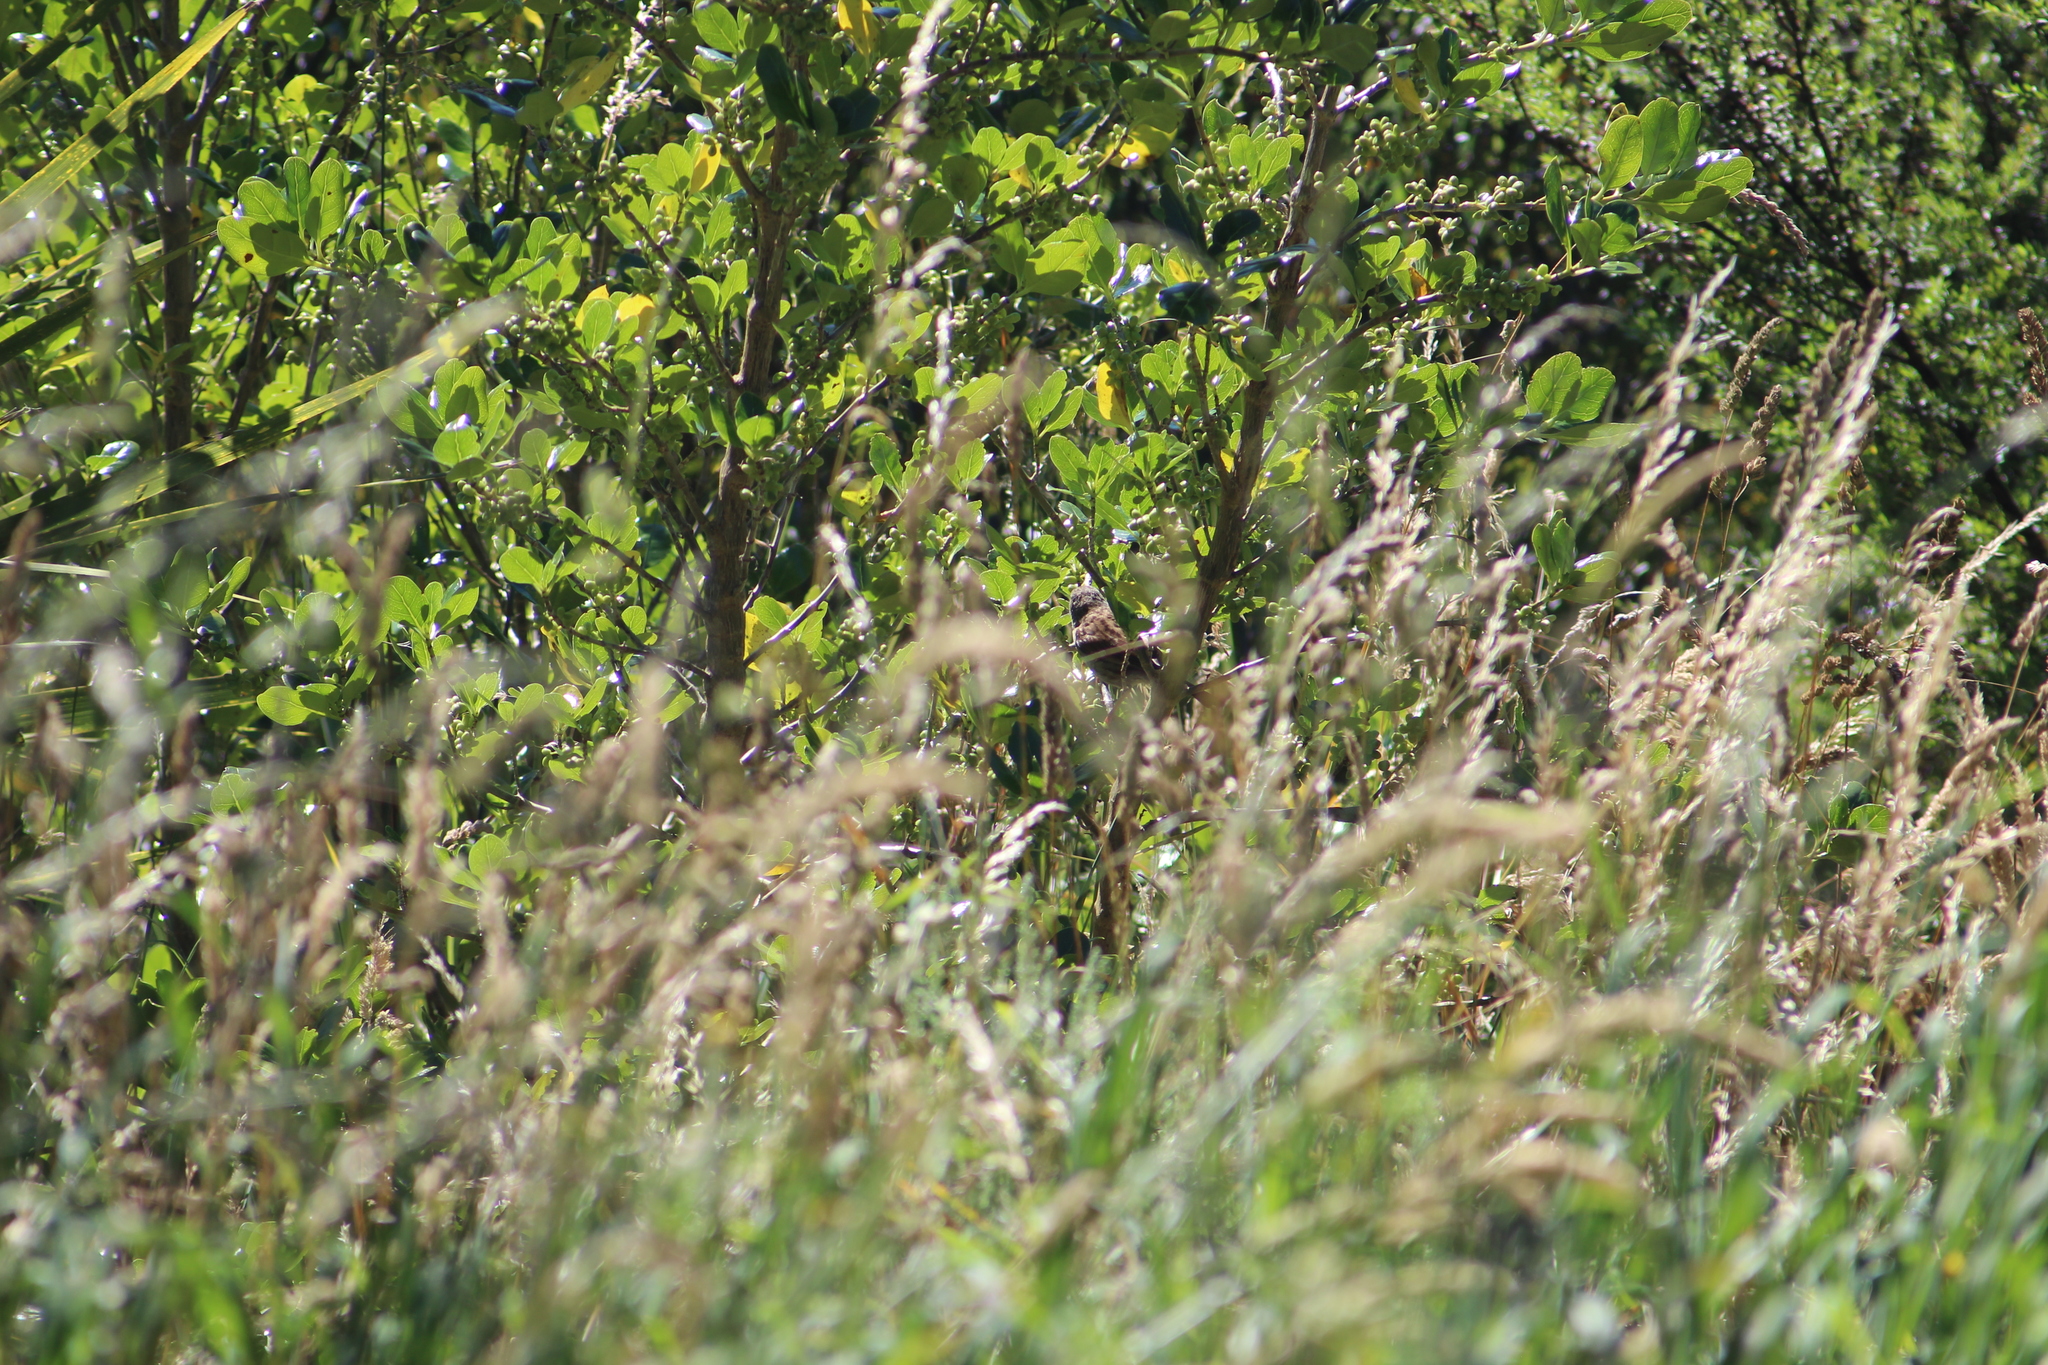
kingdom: Animalia
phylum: Chordata
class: Aves
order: Passeriformes
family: Prunellidae
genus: Prunella
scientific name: Prunella modularis
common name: Dunnock
